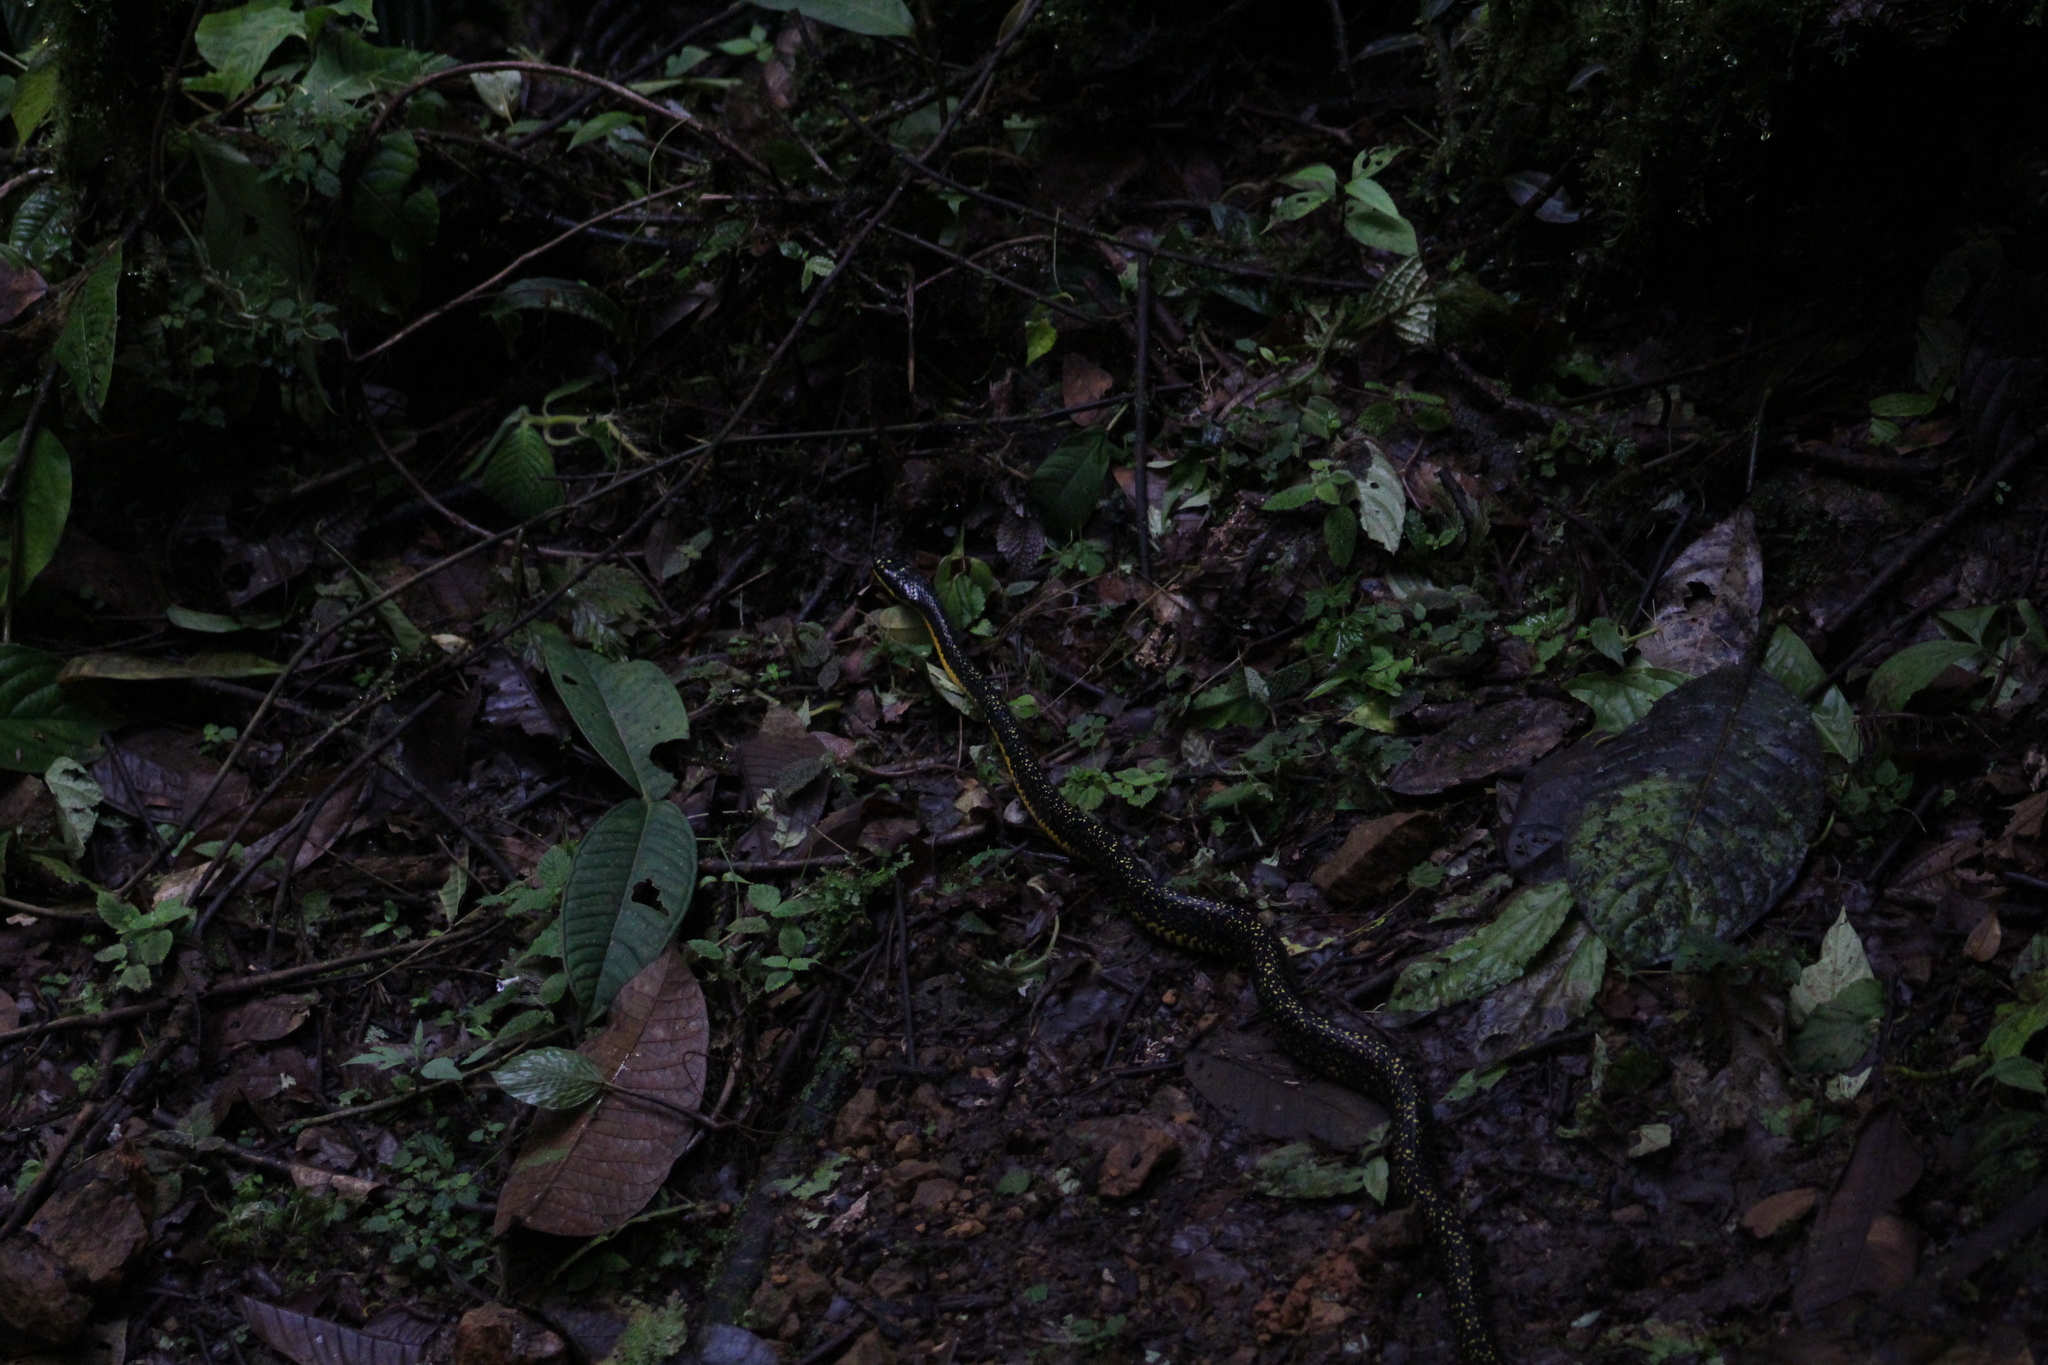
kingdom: Animalia
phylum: Chordata
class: Squamata
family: Colubridae
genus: Phrynonax
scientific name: Phrynonax poecilonotus
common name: Puffing snake
